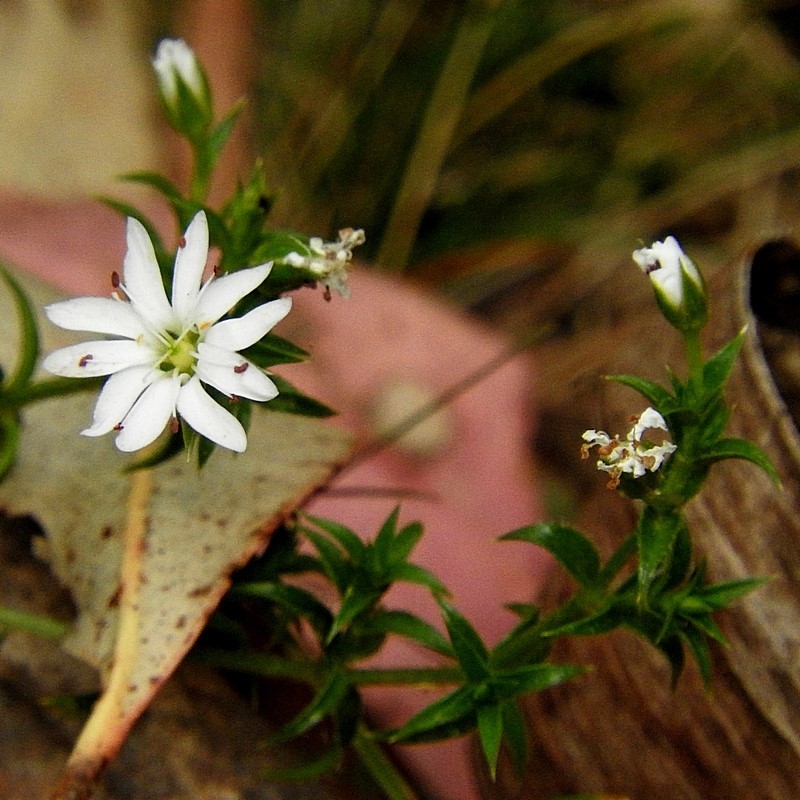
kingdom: Plantae
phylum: Tracheophyta
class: Magnoliopsida
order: Caryophyllales
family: Caryophyllaceae
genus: Stellaria
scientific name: Stellaria pungens
